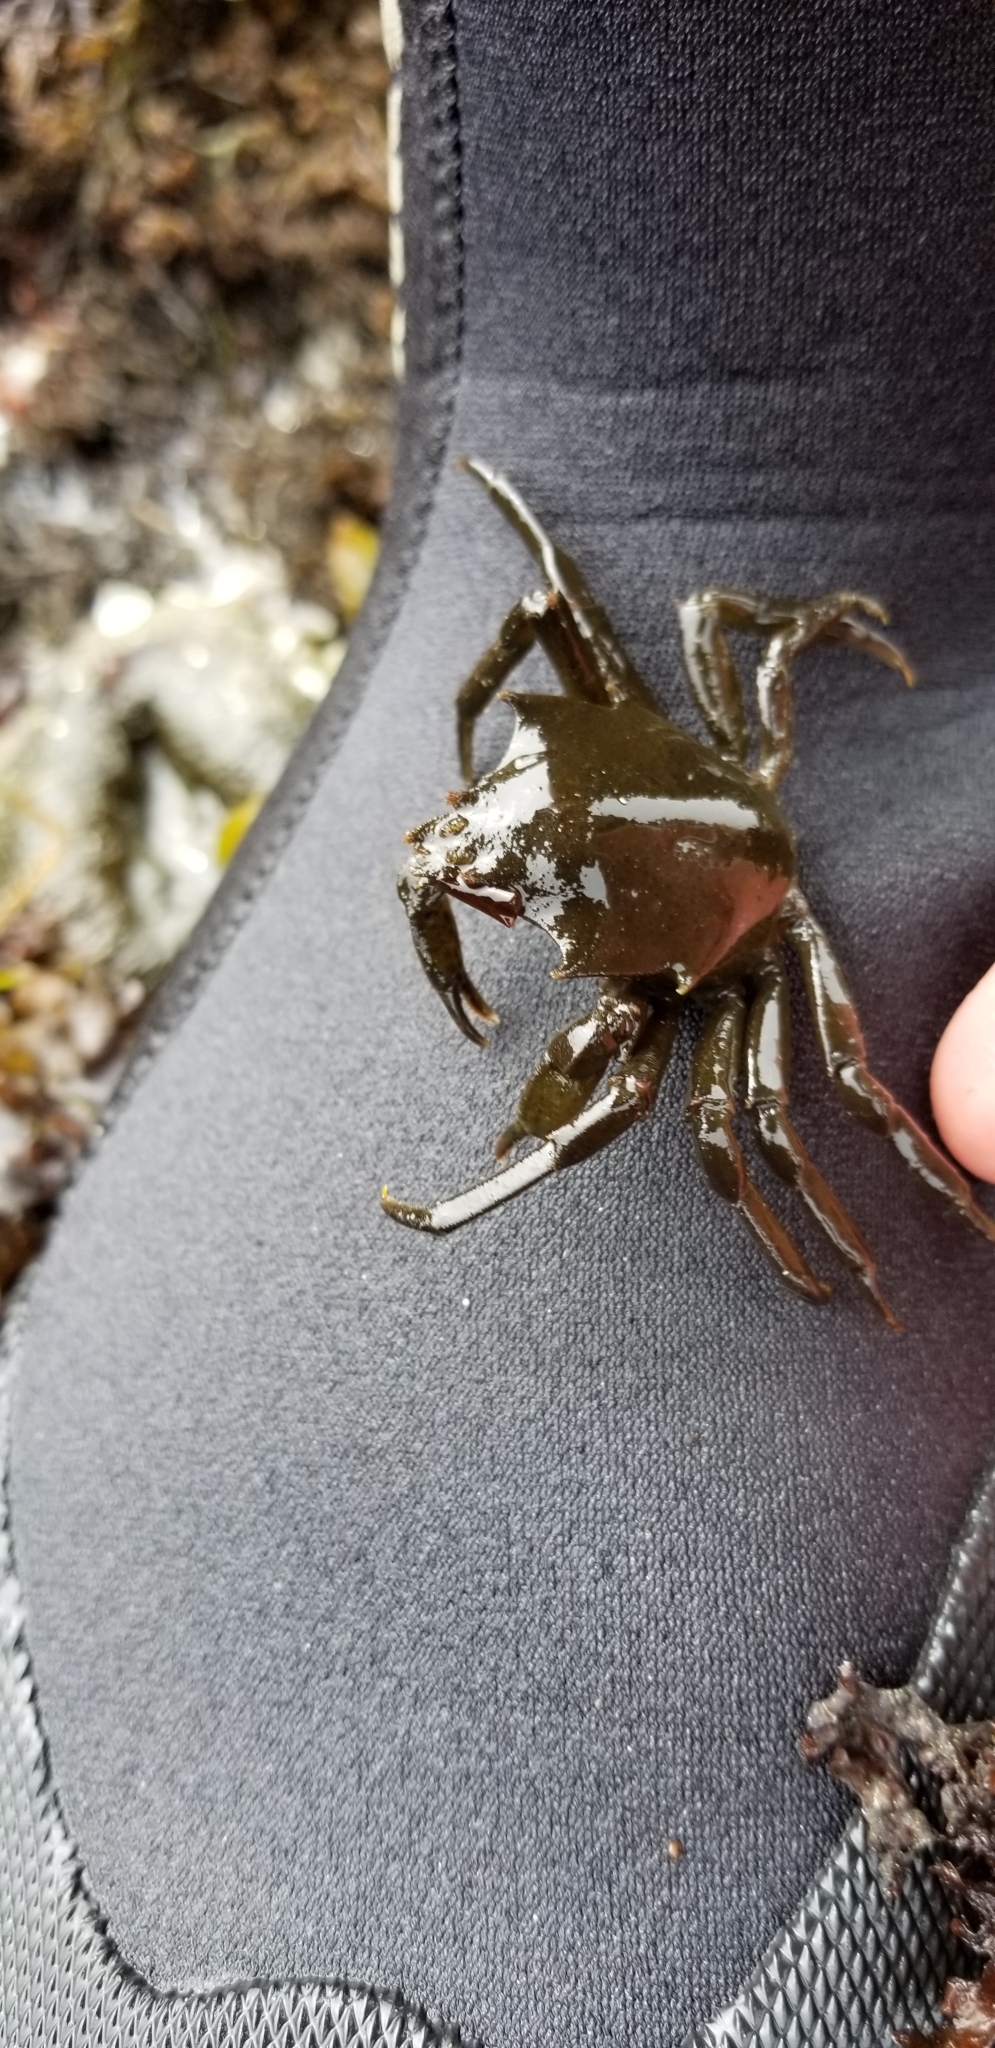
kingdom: Animalia
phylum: Arthropoda
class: Malacostraca
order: Decapoda
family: Epialtidae
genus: Pugettia
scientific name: Pugettia producta
